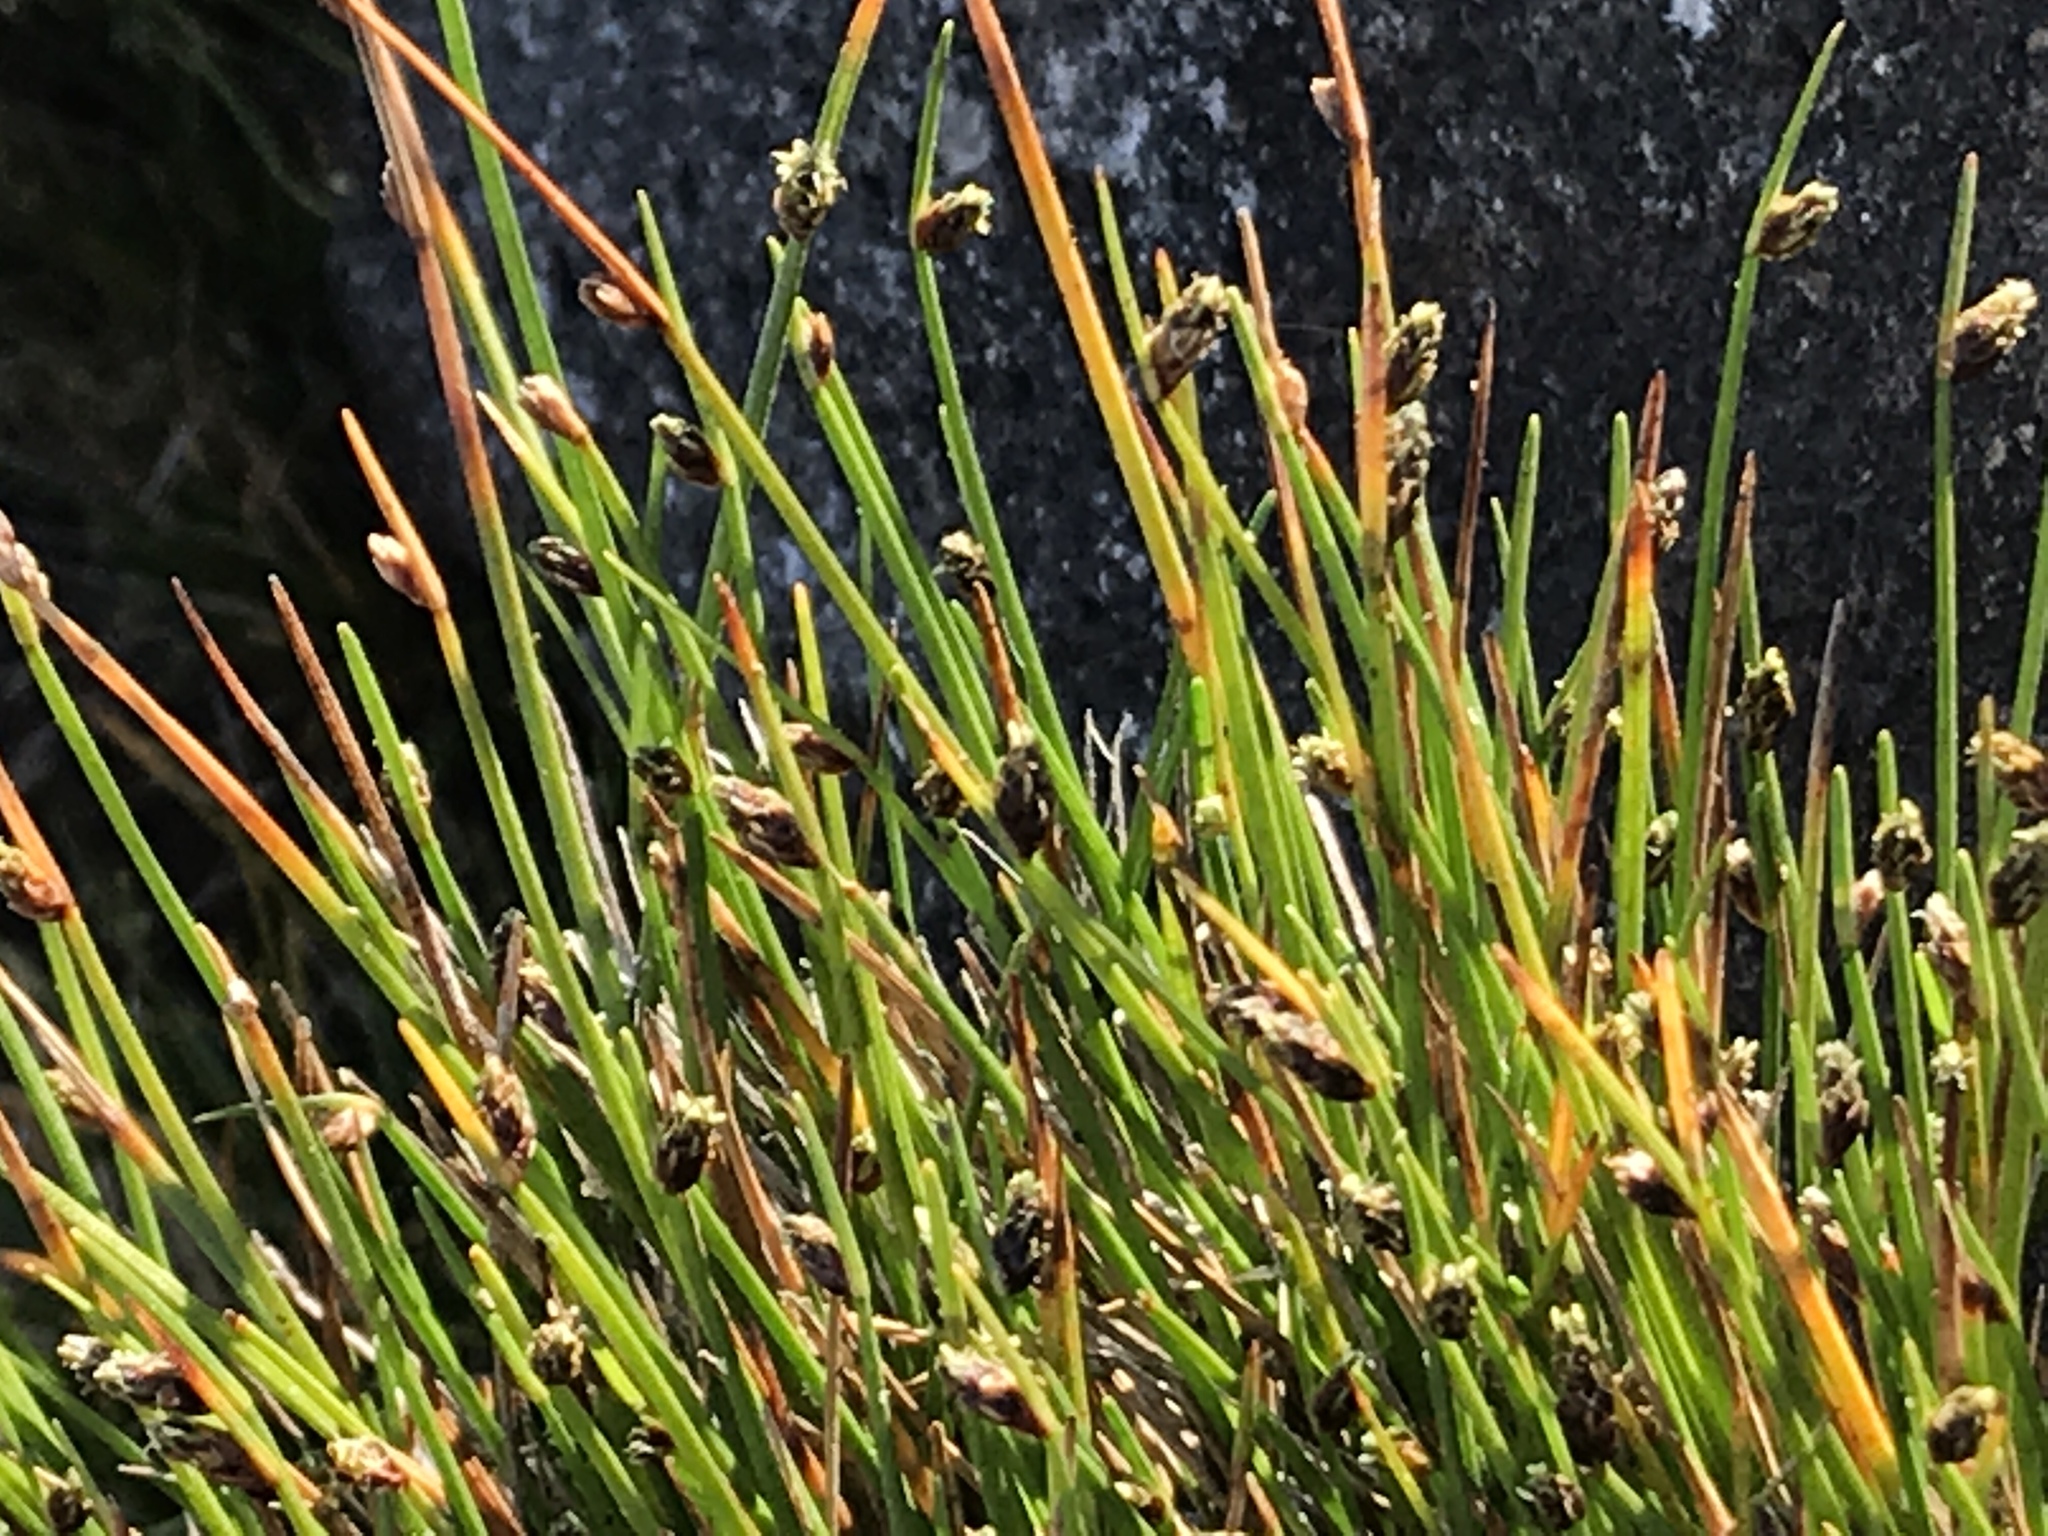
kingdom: Plantae
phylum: Tracheophyta
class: Liliopsida
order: Poales
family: Cyperaceae
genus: Isolepis
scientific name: Isolepis cernua
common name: Slender club-rush
